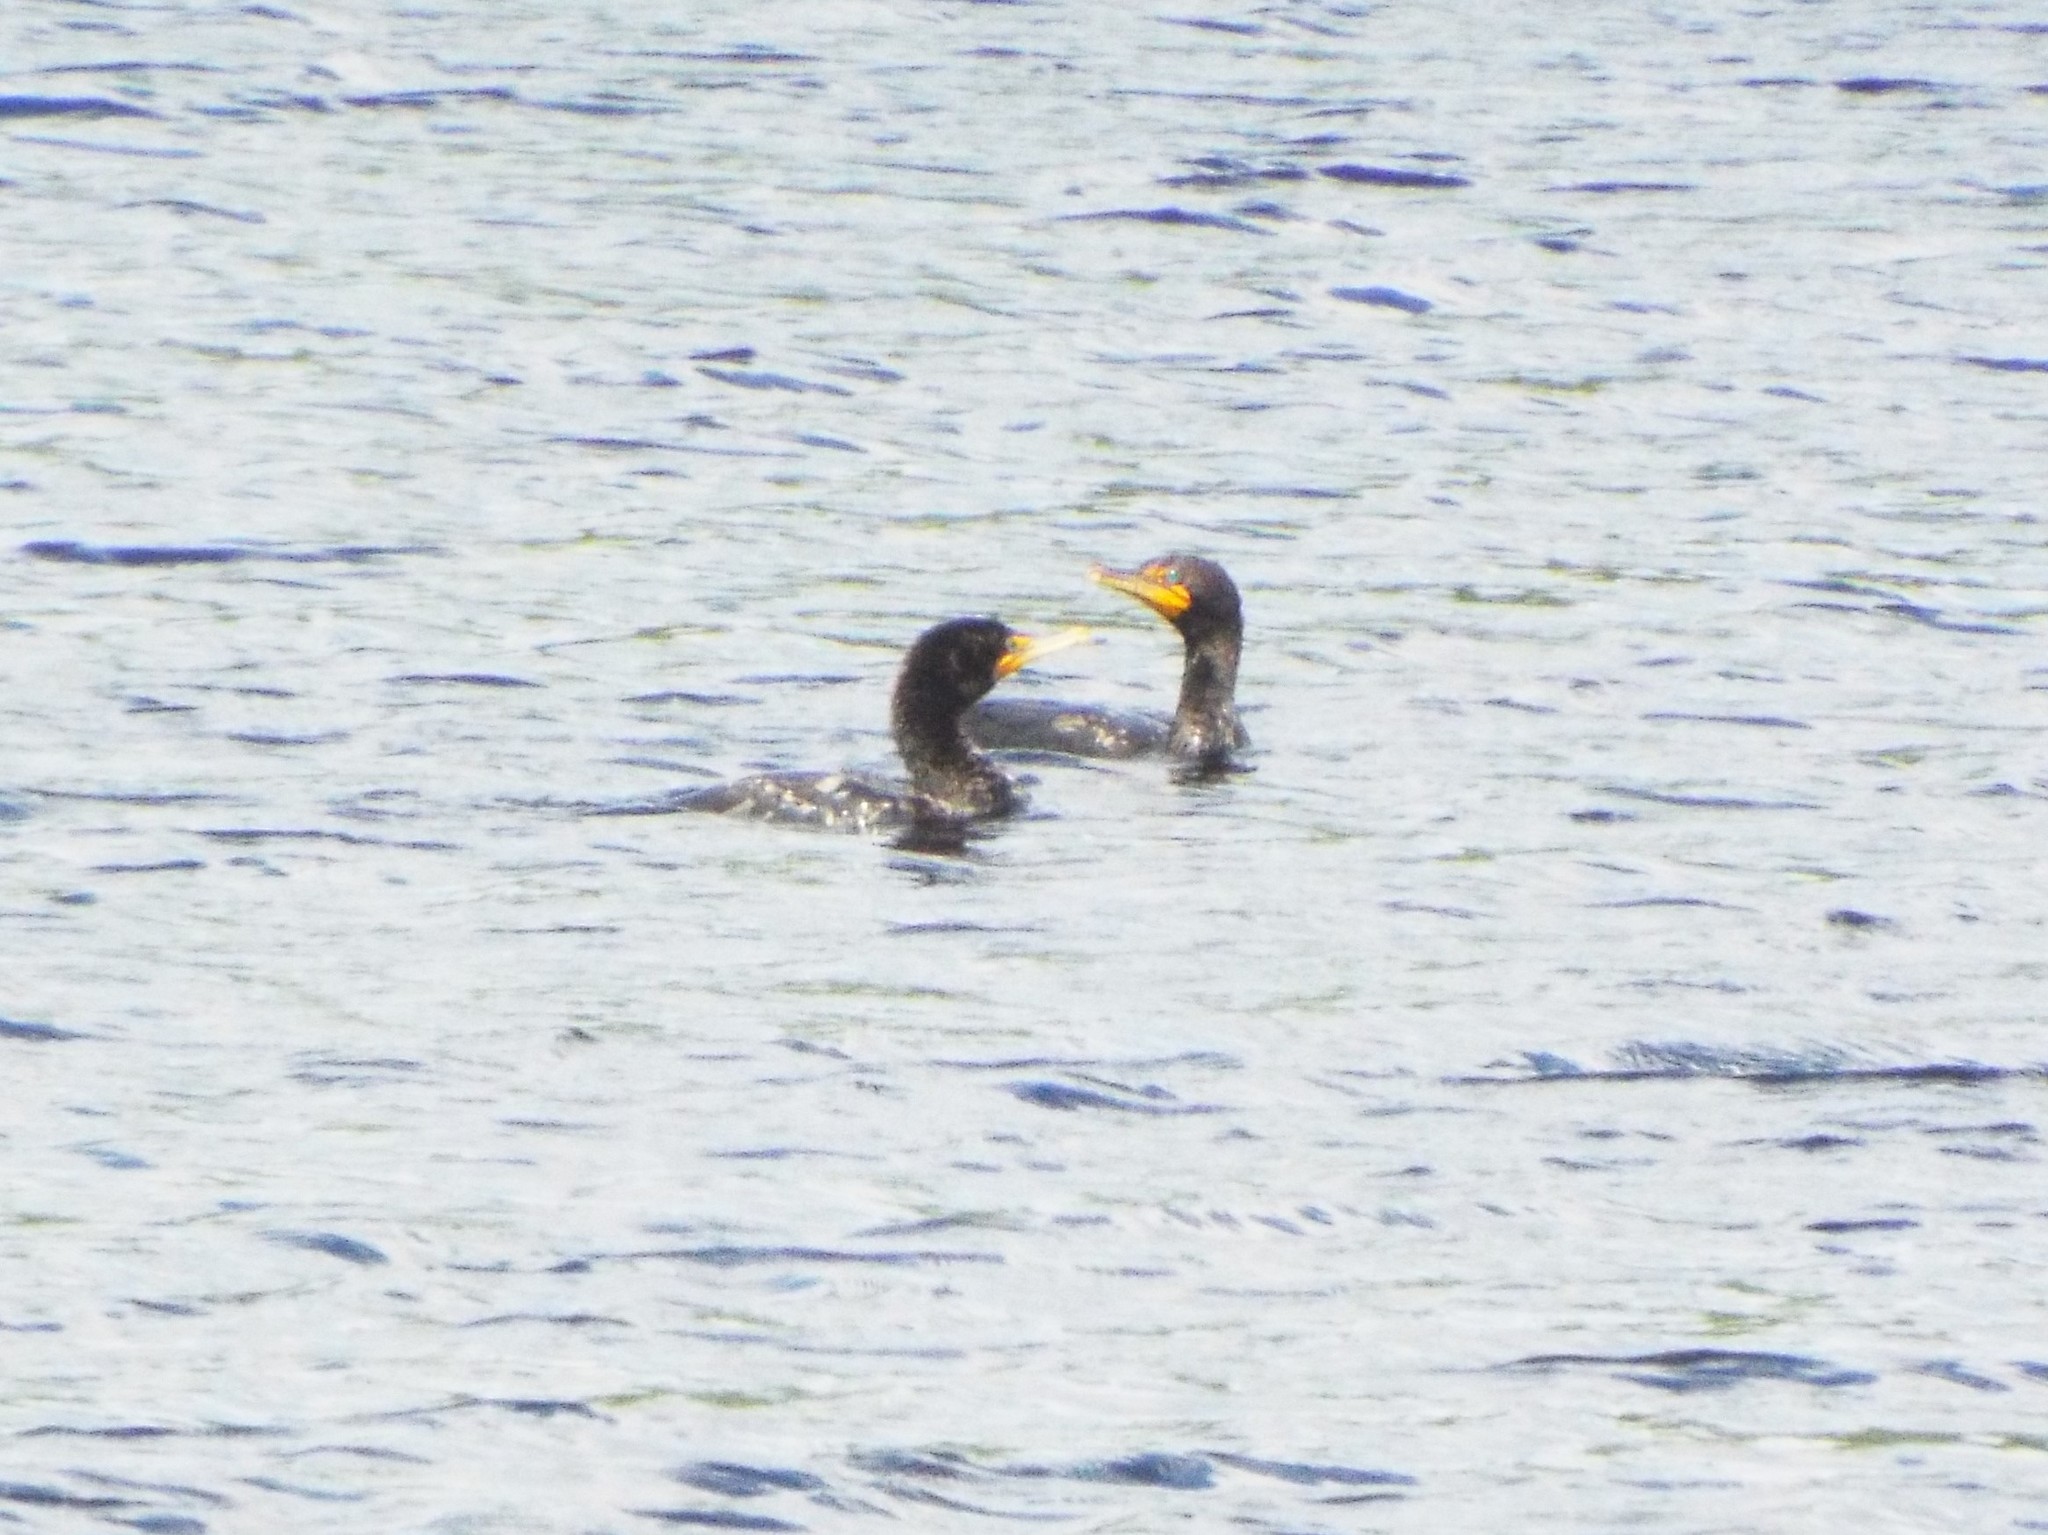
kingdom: Animalia
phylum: Chordata
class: Aves
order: Suliformes
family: Phalacrocoracidae
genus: Phalacrocorax
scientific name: Phalacrocorax auritus
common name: Double-crested cormorant
